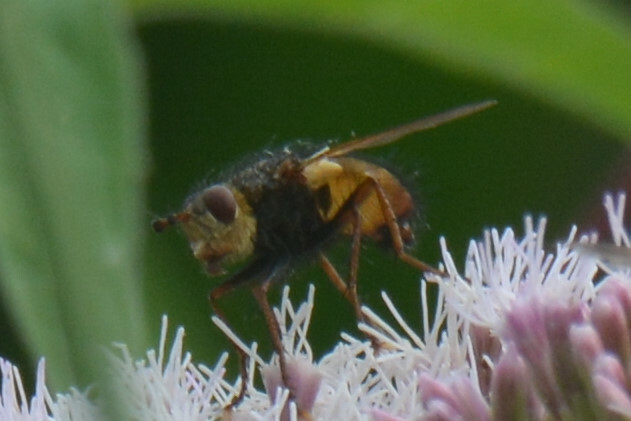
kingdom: Animalia
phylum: Arthropoda
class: Insecta
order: Diptera
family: Tachinidae
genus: Tachina
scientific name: Tachina fera
